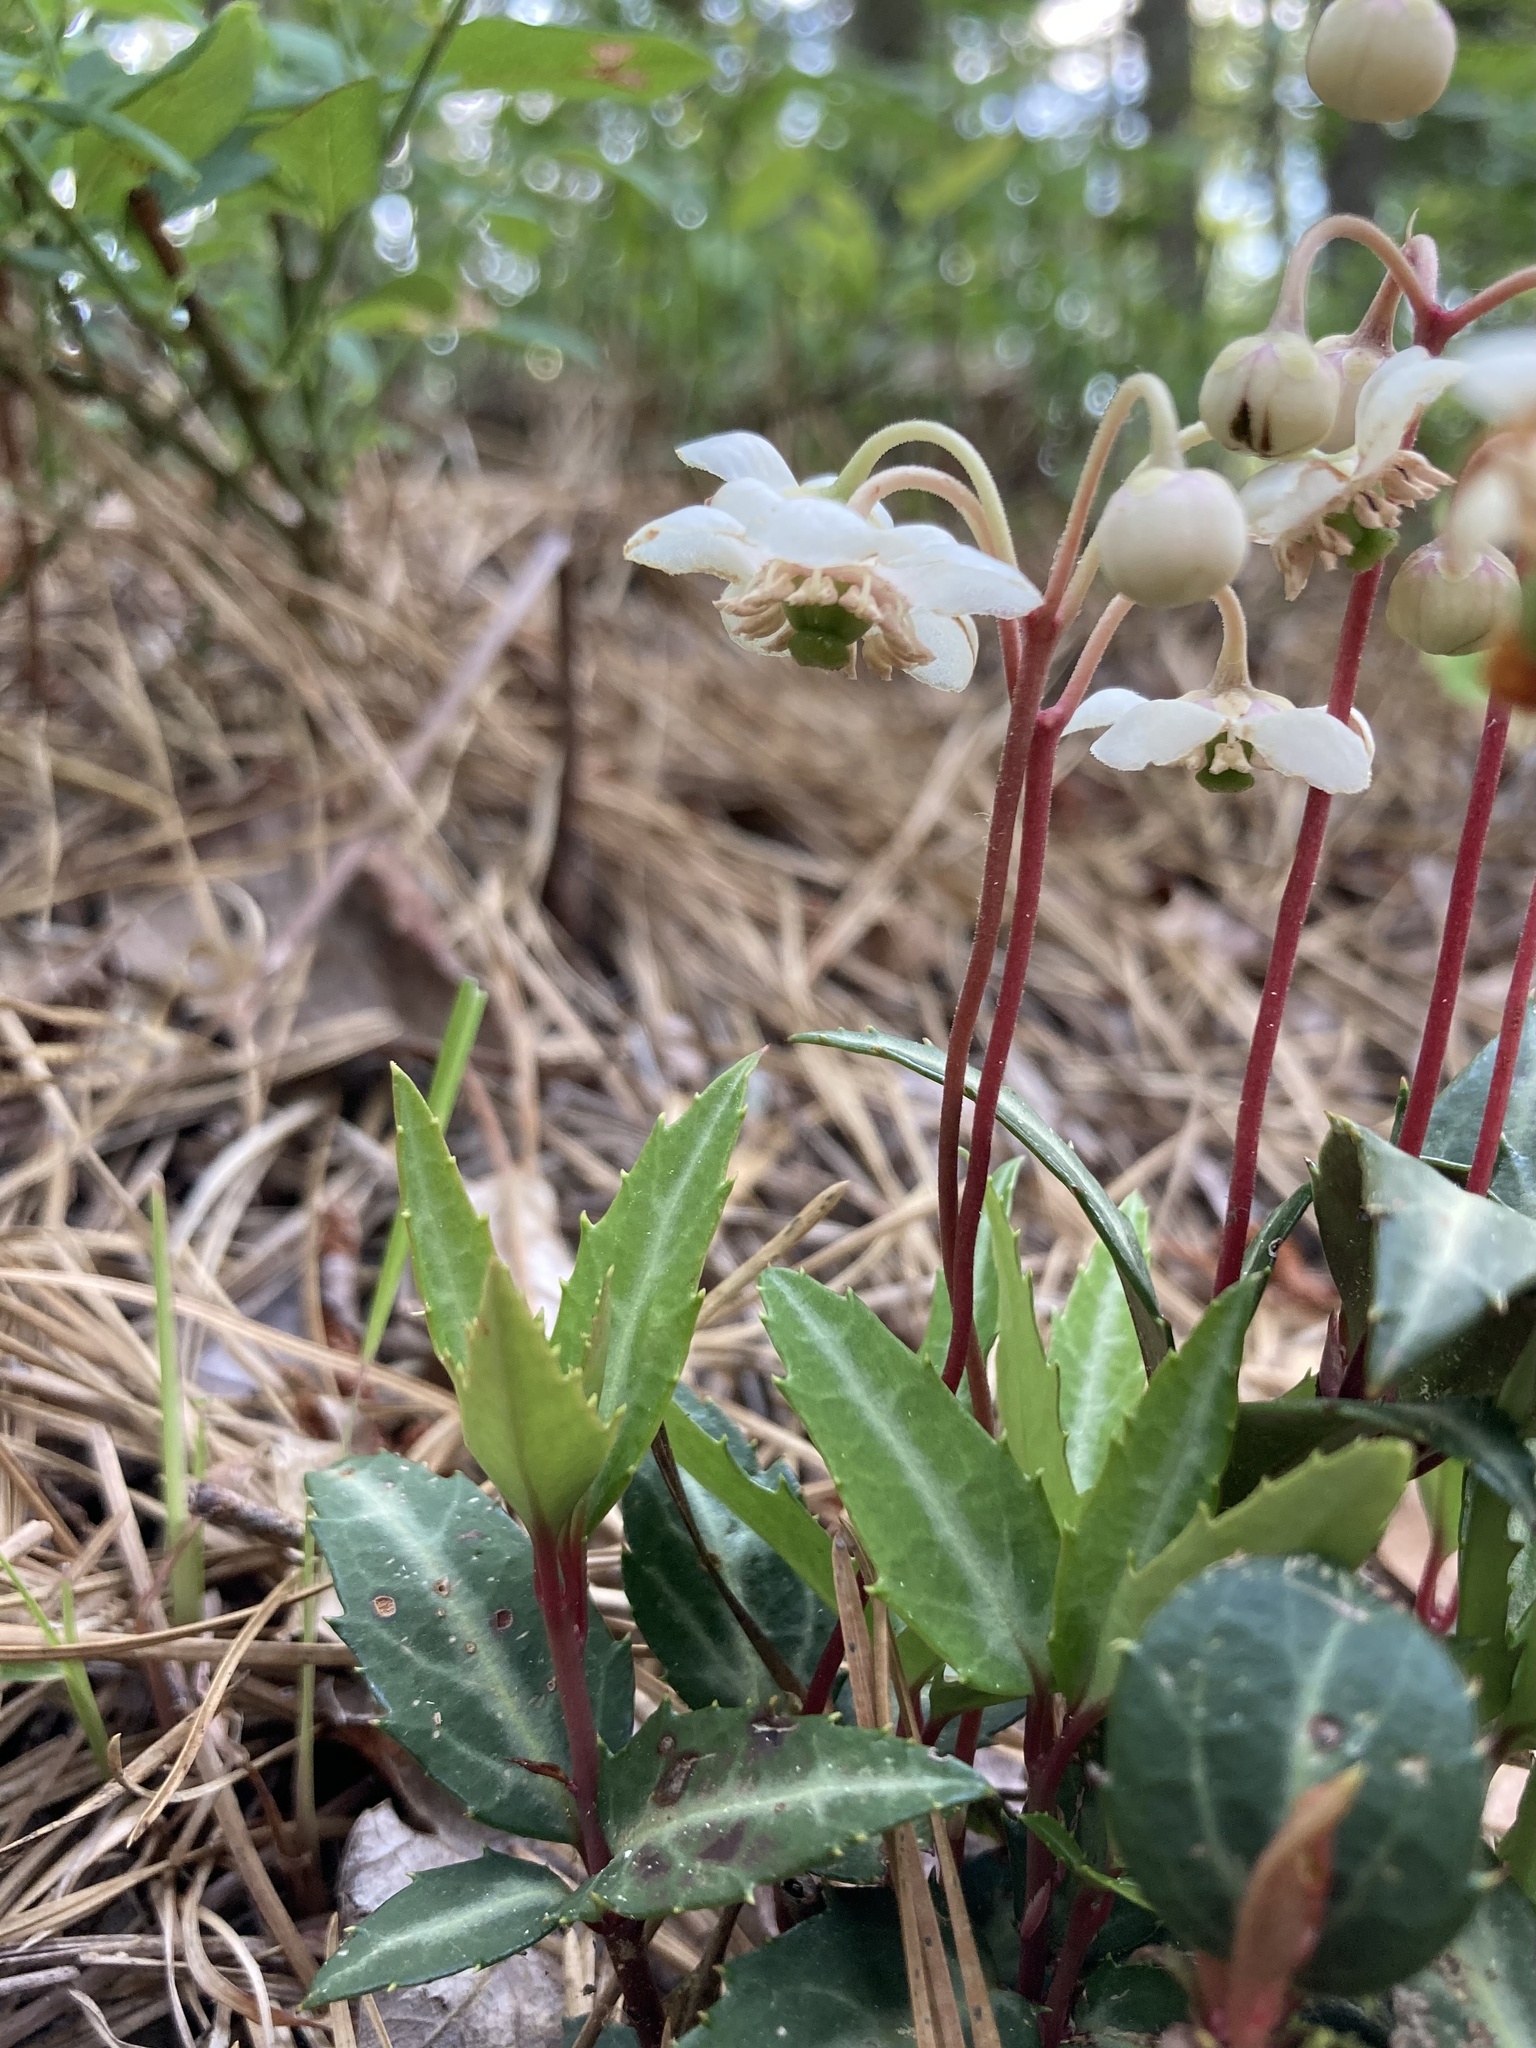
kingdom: Plantae
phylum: Tracheophyta
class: Magnoliopsida
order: Ericales
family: Ericaceae
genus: Chimaphila
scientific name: Chimaphila maculata
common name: Spotted pipsissewa
